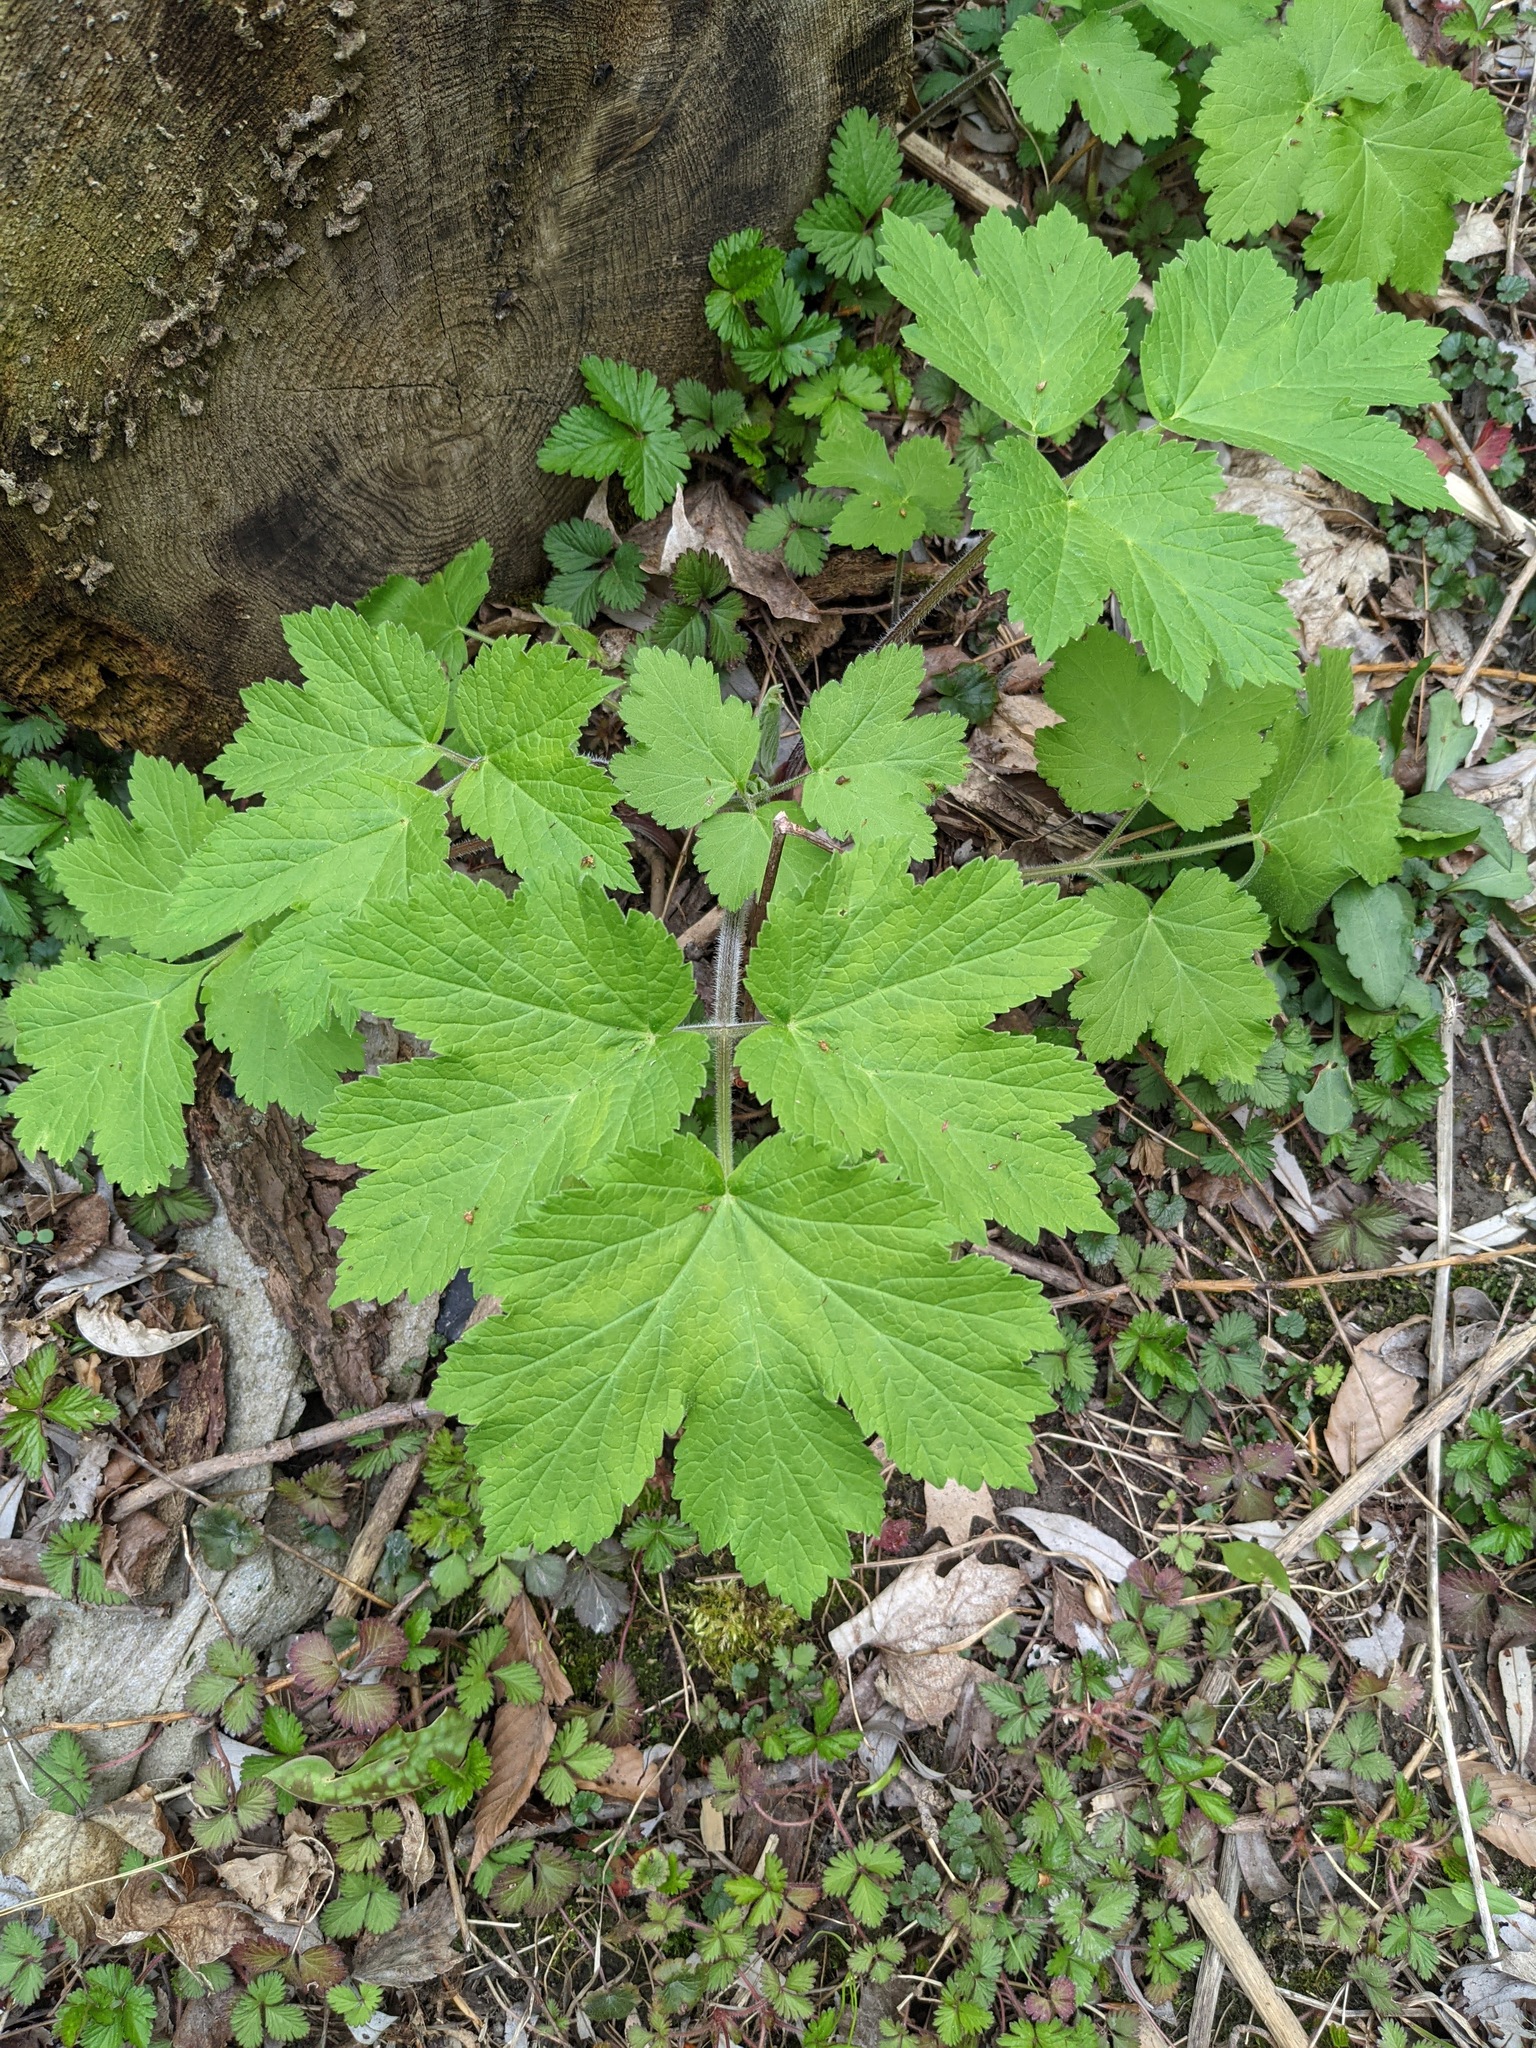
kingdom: Plantae
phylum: Tracheophyta
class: Magnoliopsida
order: Apiales
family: Apiaceae
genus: Heracleum
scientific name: Heracleum maximum
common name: American cow parsnip
